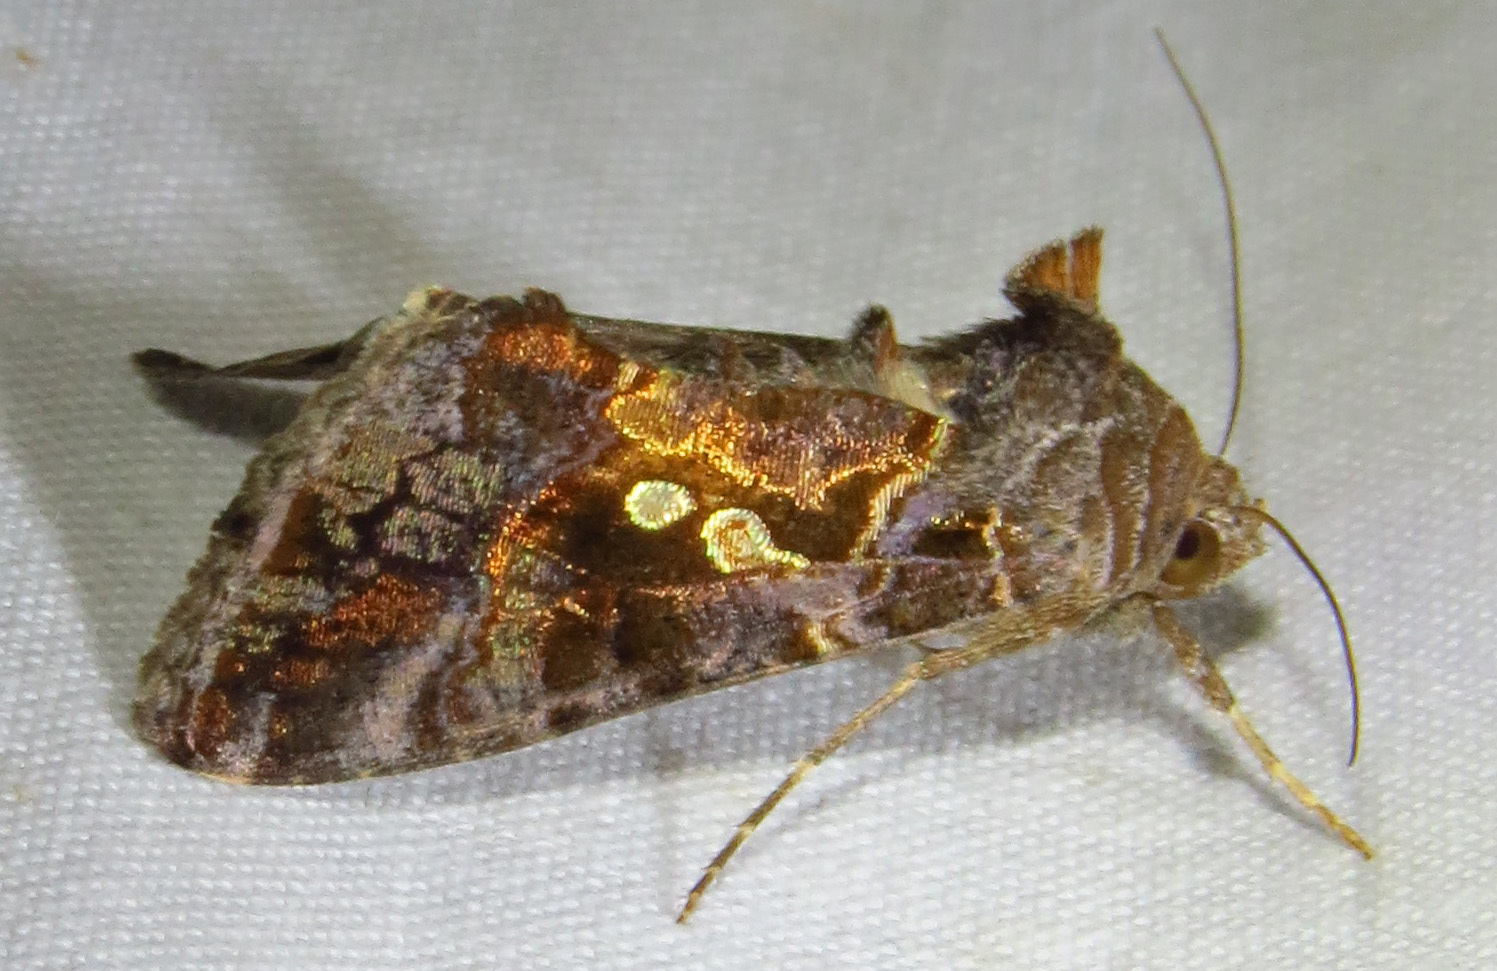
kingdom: Animalia
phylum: Arthropoda
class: Insecta
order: Lepidoptera
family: Noctuidae
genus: Chrysodeixis
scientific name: Chrysodeixis includens
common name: Cutworm moth
